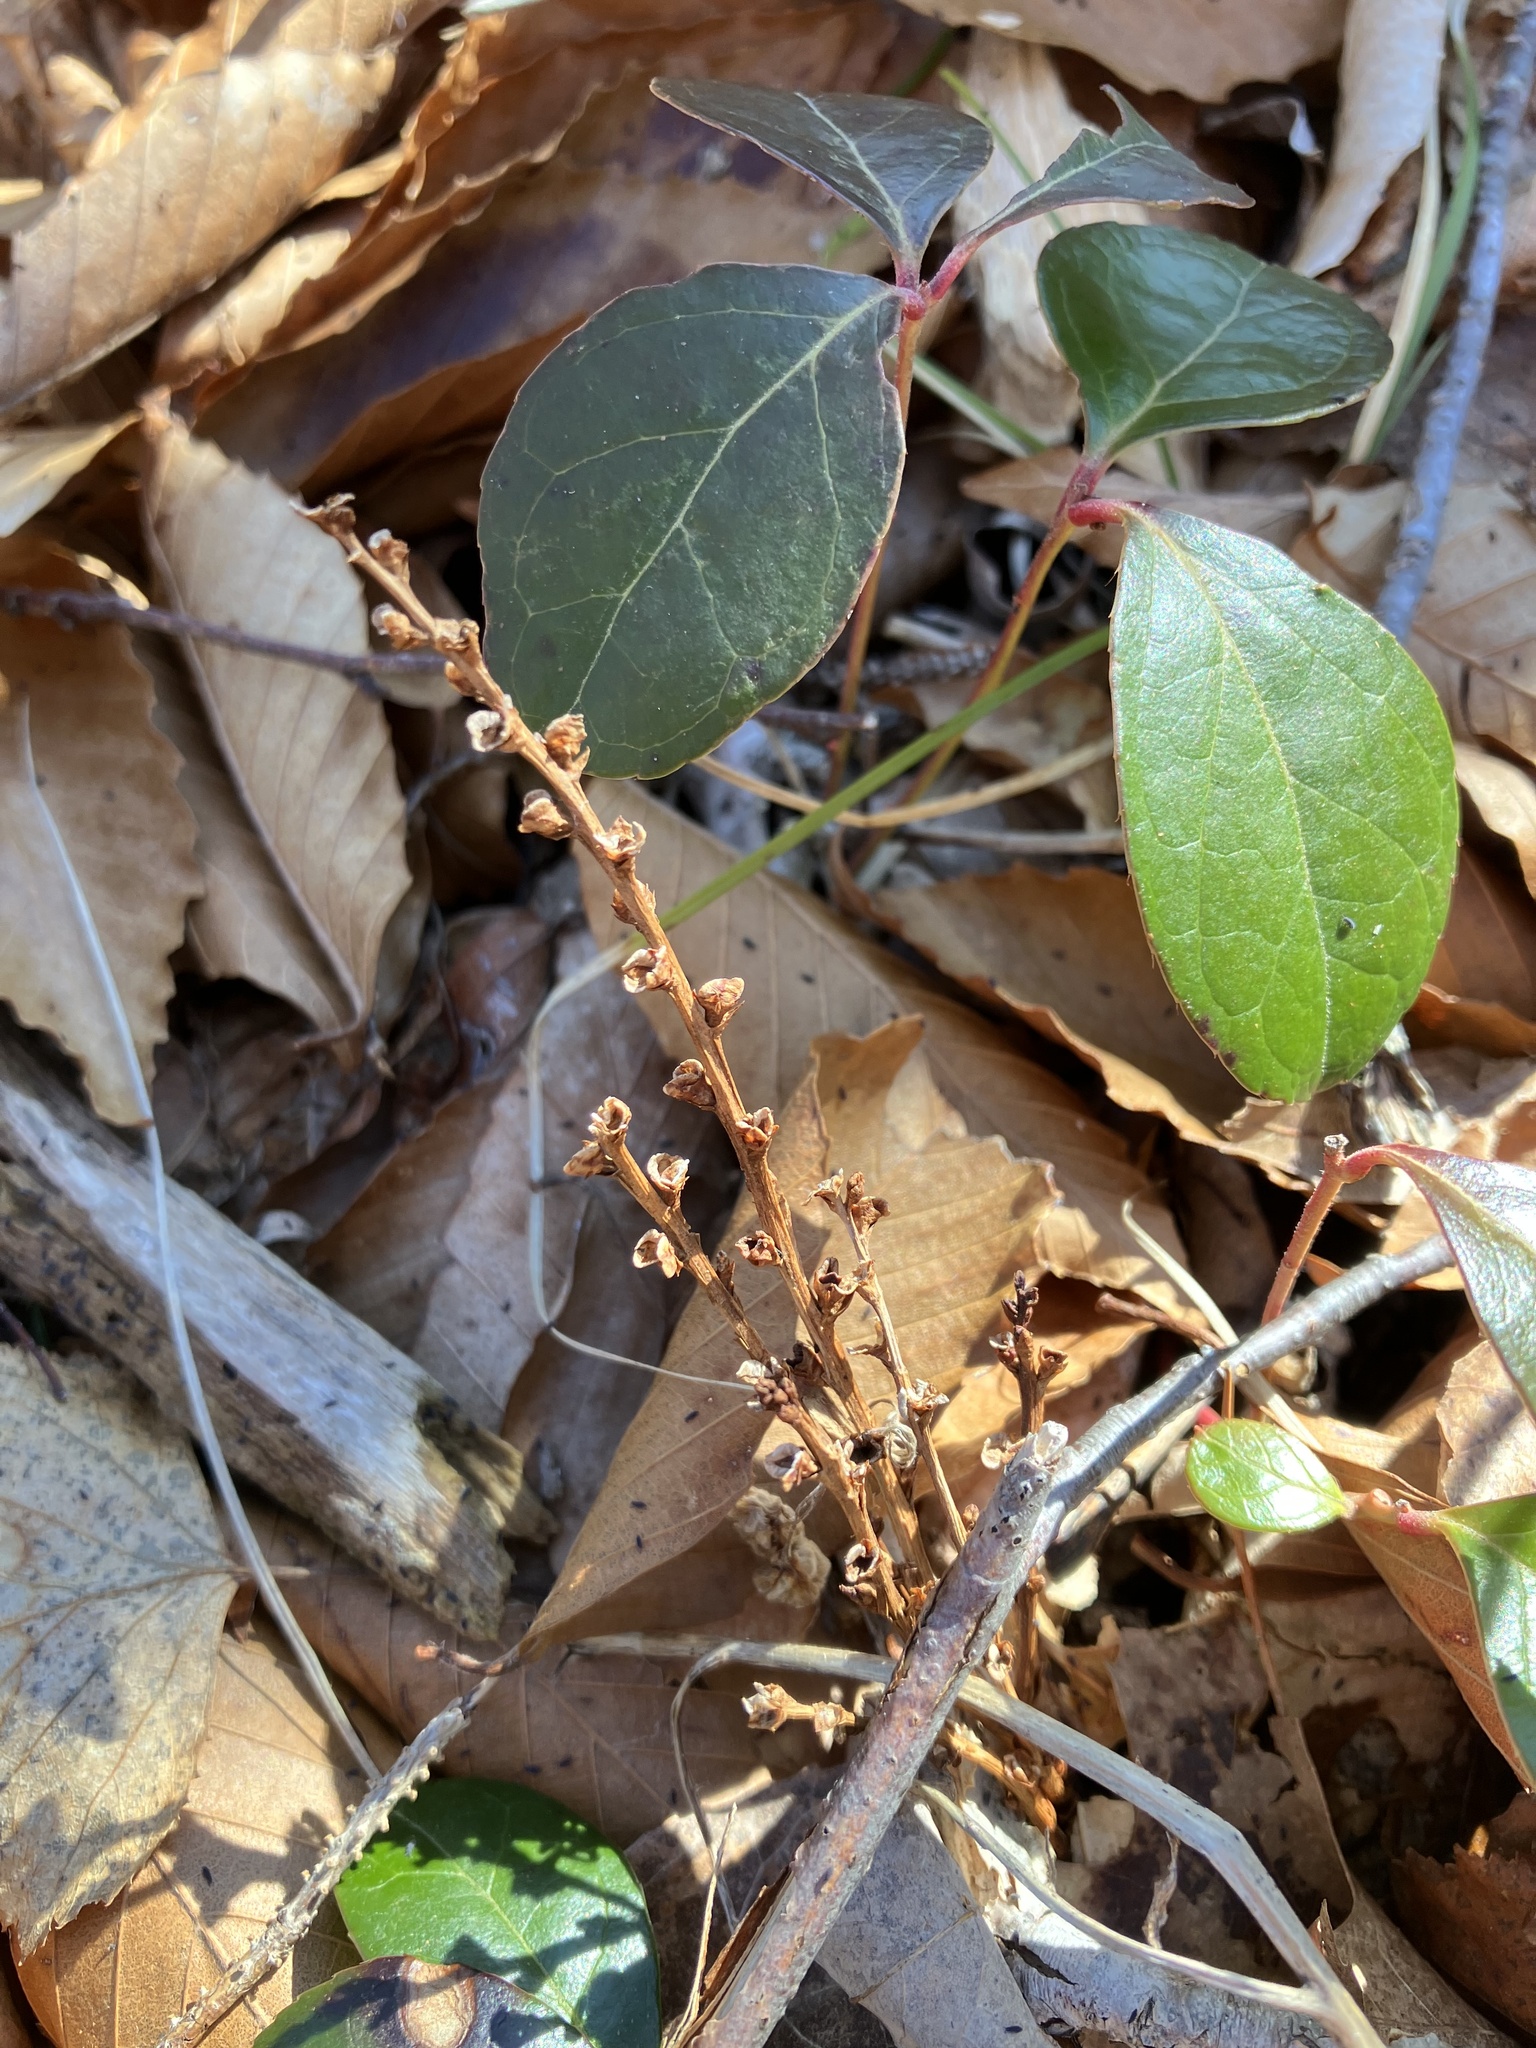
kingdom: Plantae
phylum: Tracheophyta
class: Magnoliopsida
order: Lamiales
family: Orobanchaceae
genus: Epifagus
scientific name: Epifagus virginiana
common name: Beechdrops
